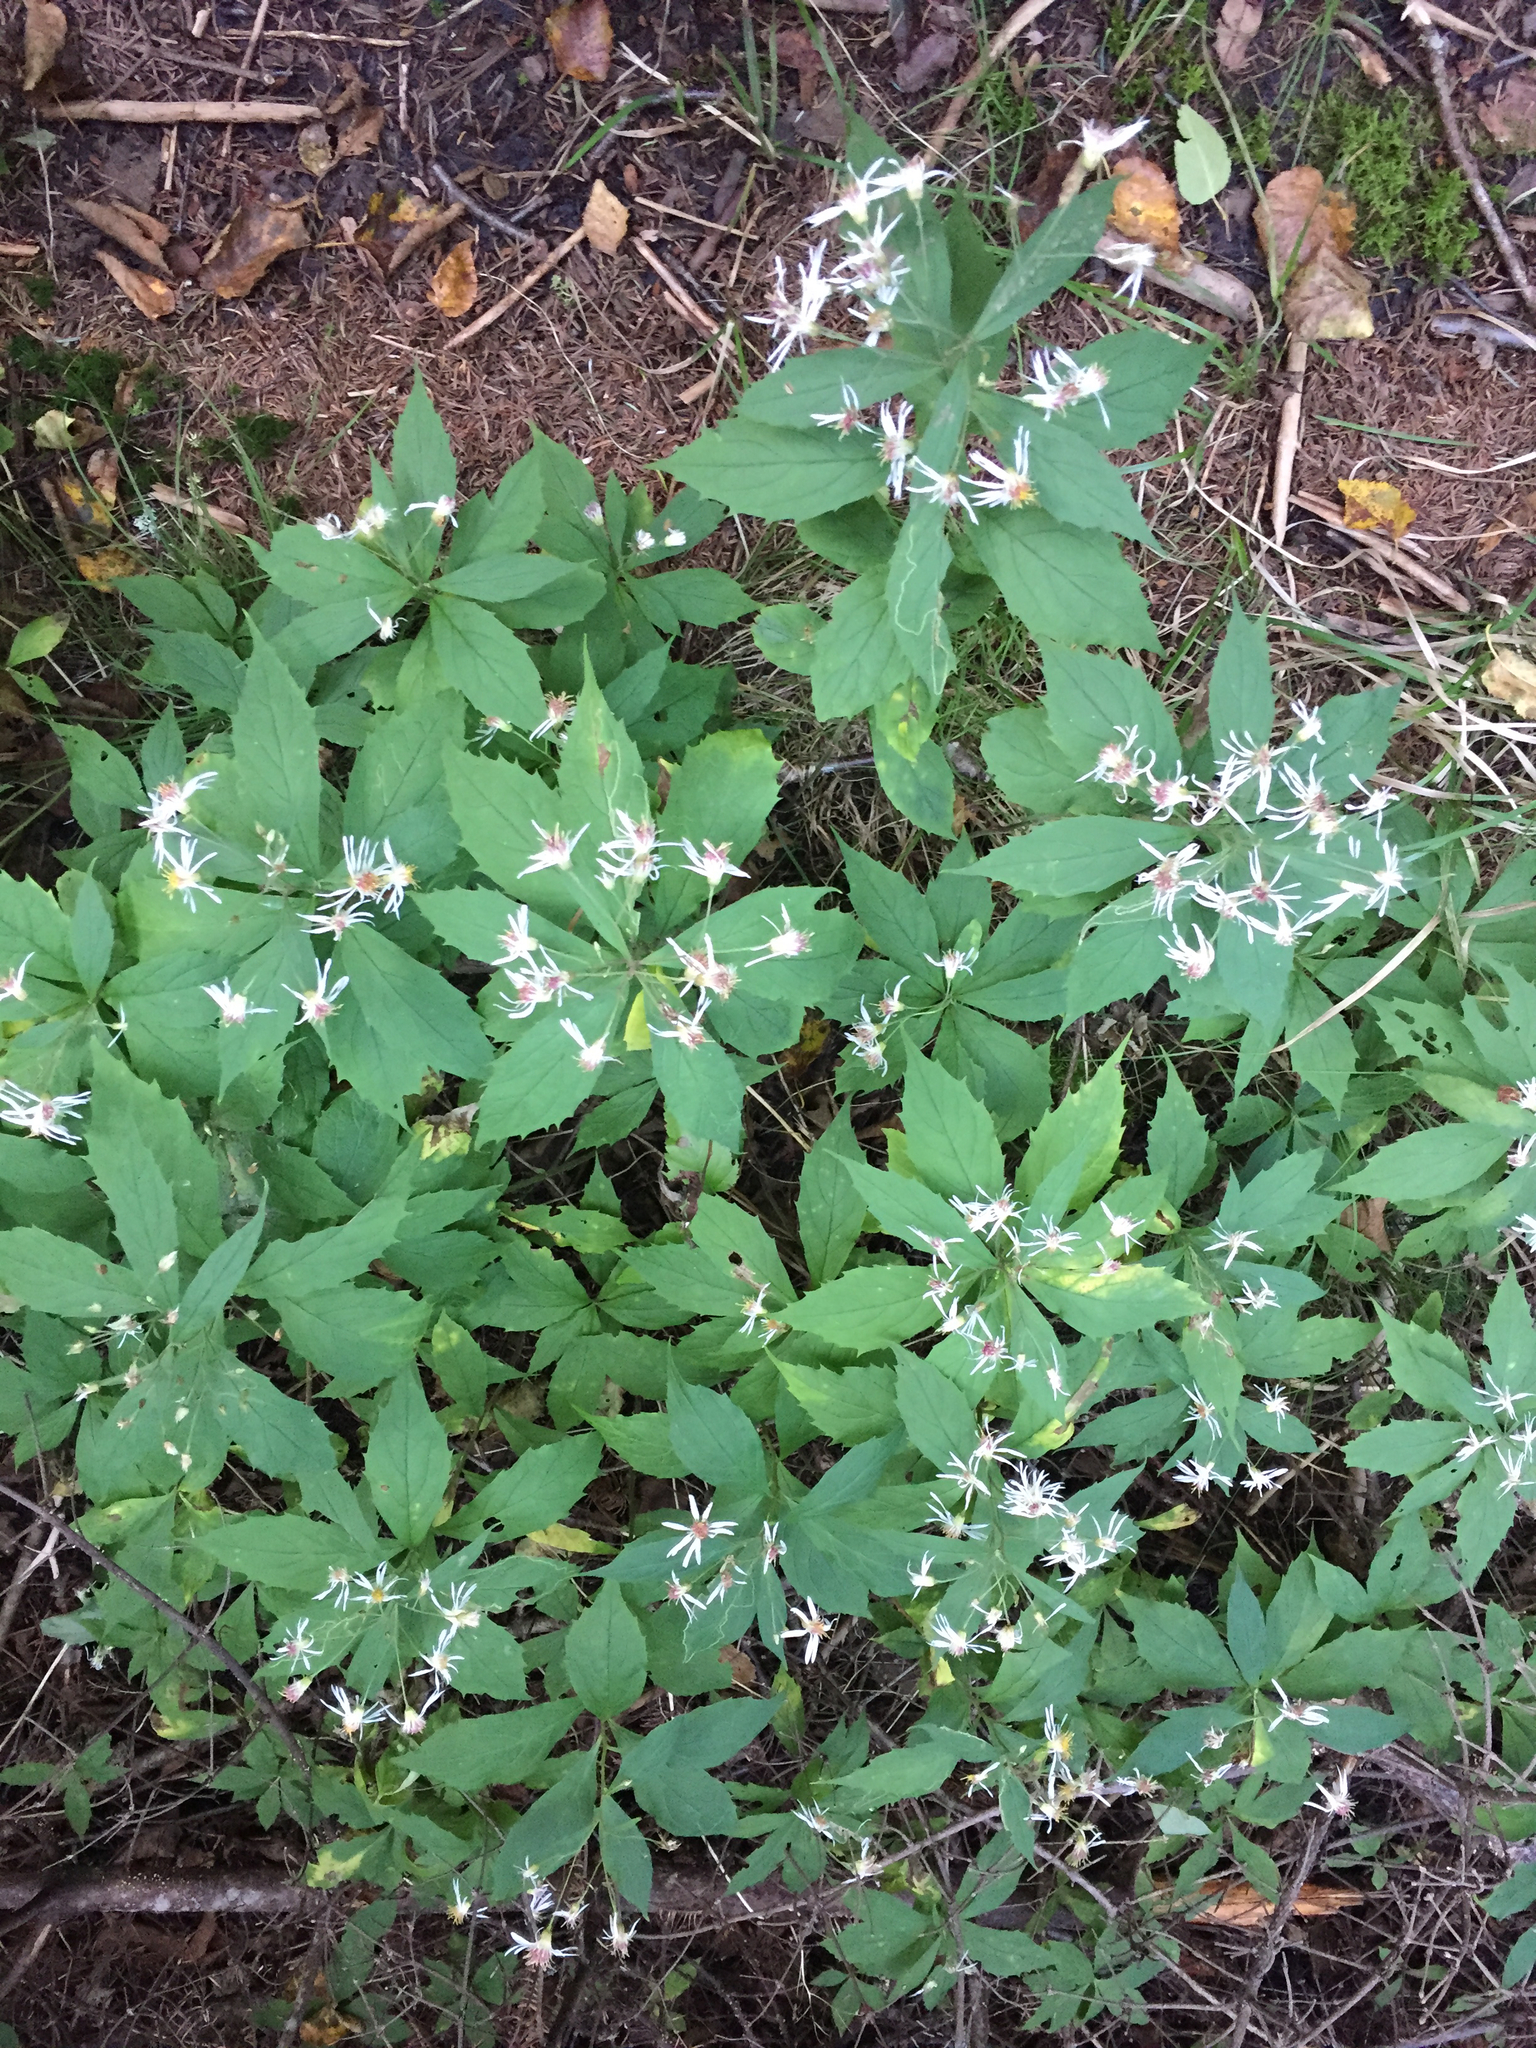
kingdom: Plantae
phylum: Tracheophyta
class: Magnoliopsida
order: Asterales
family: Asteraceae
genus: Oclemena
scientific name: Oclemena acuminata
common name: Mountain aster
